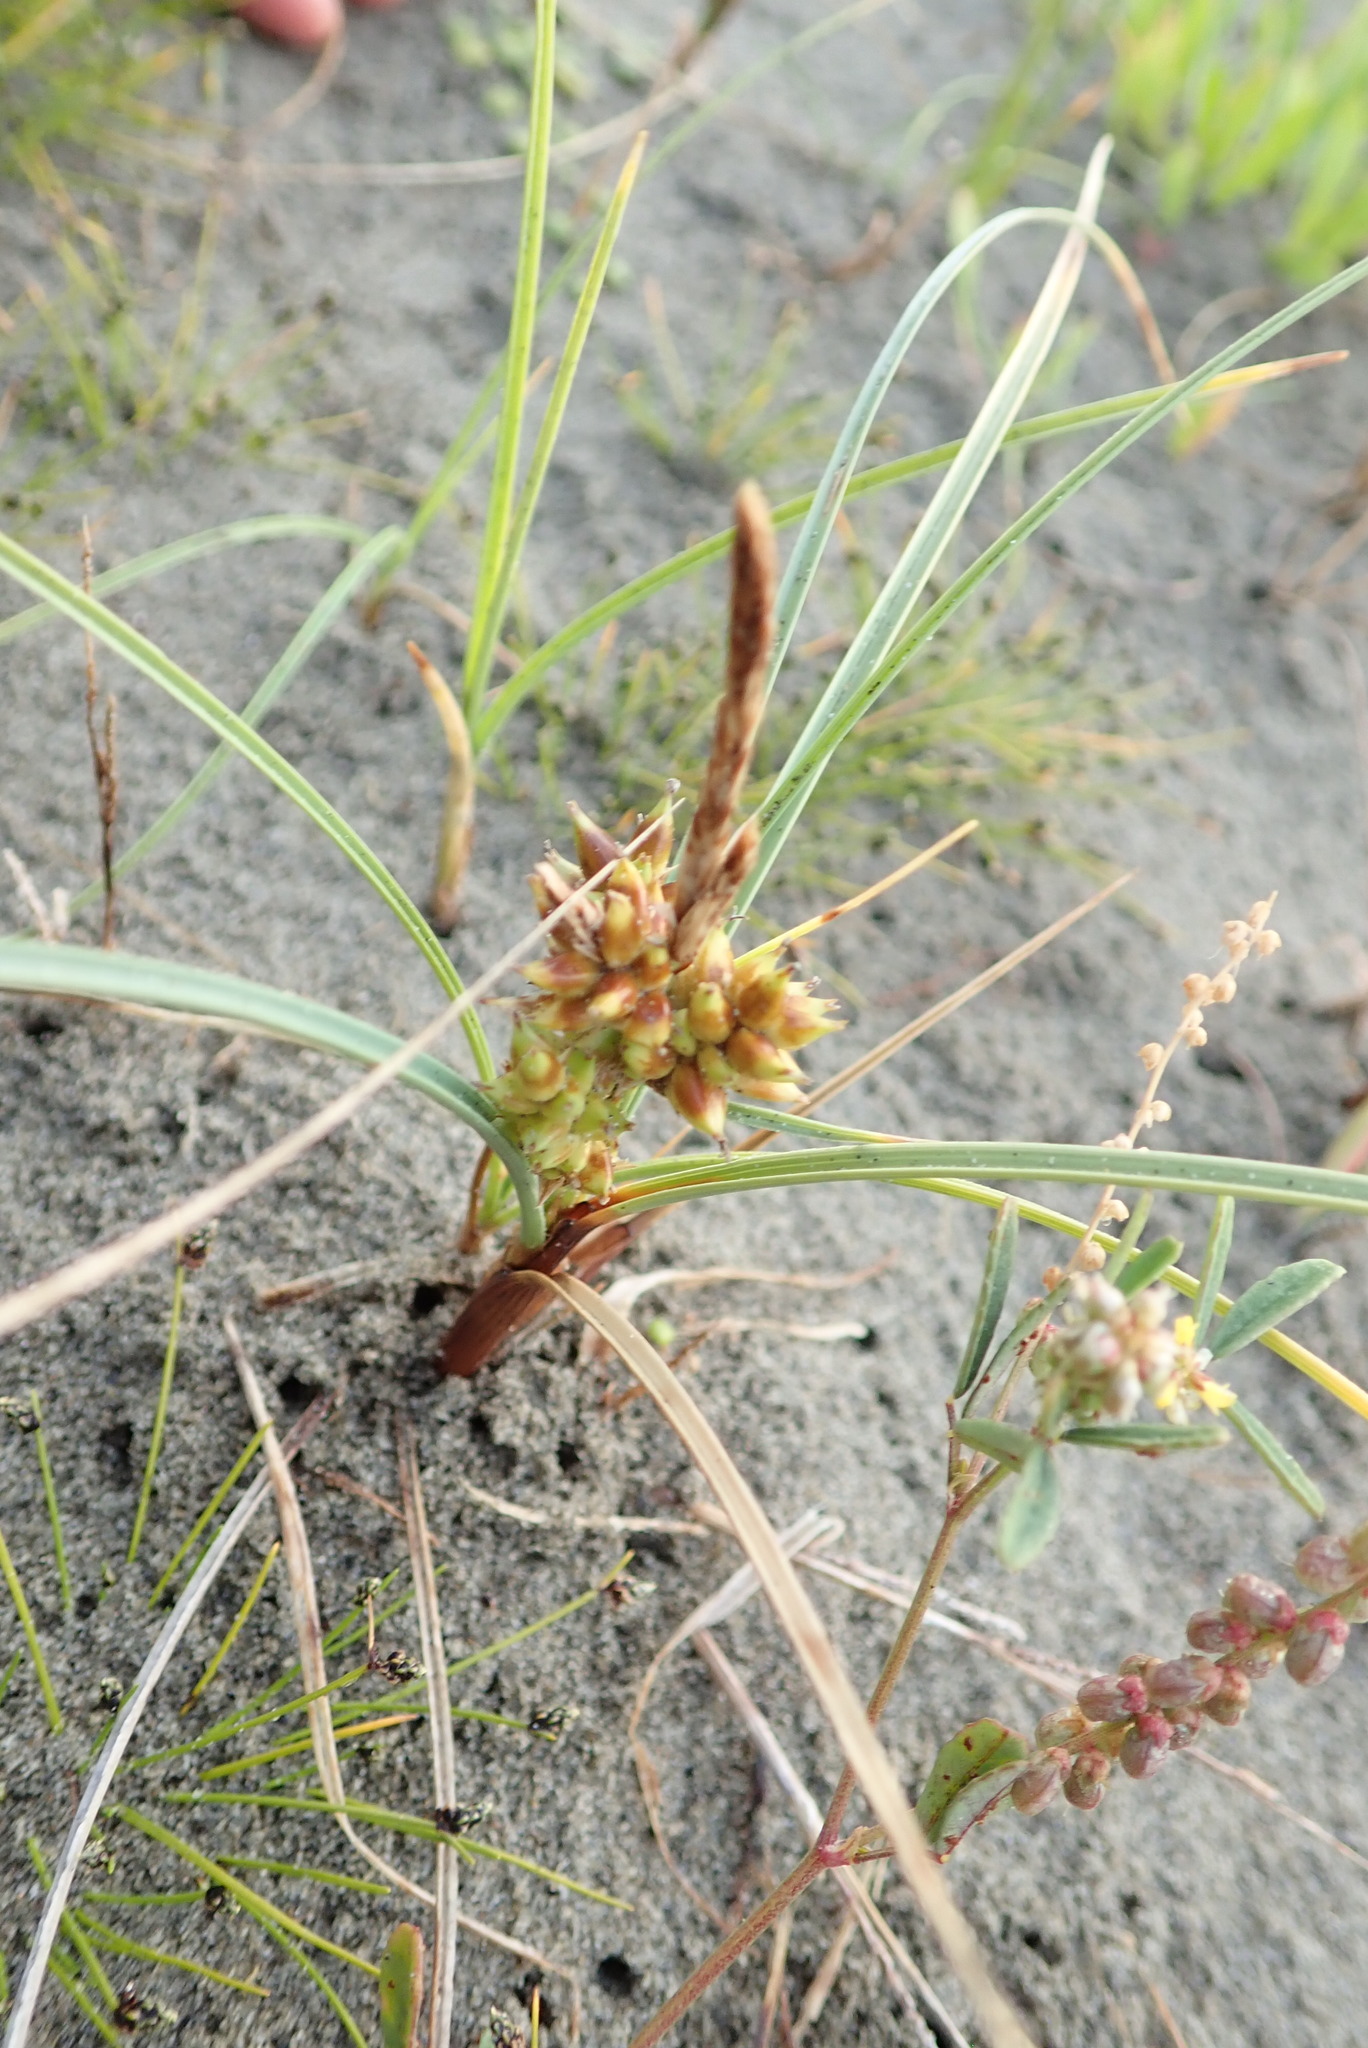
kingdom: Plantae
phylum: Tracheophyta
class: Liliopsida
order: Poales
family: Cyperaceae
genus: Carex
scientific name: Carex pumila
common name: Dwarf sedge
